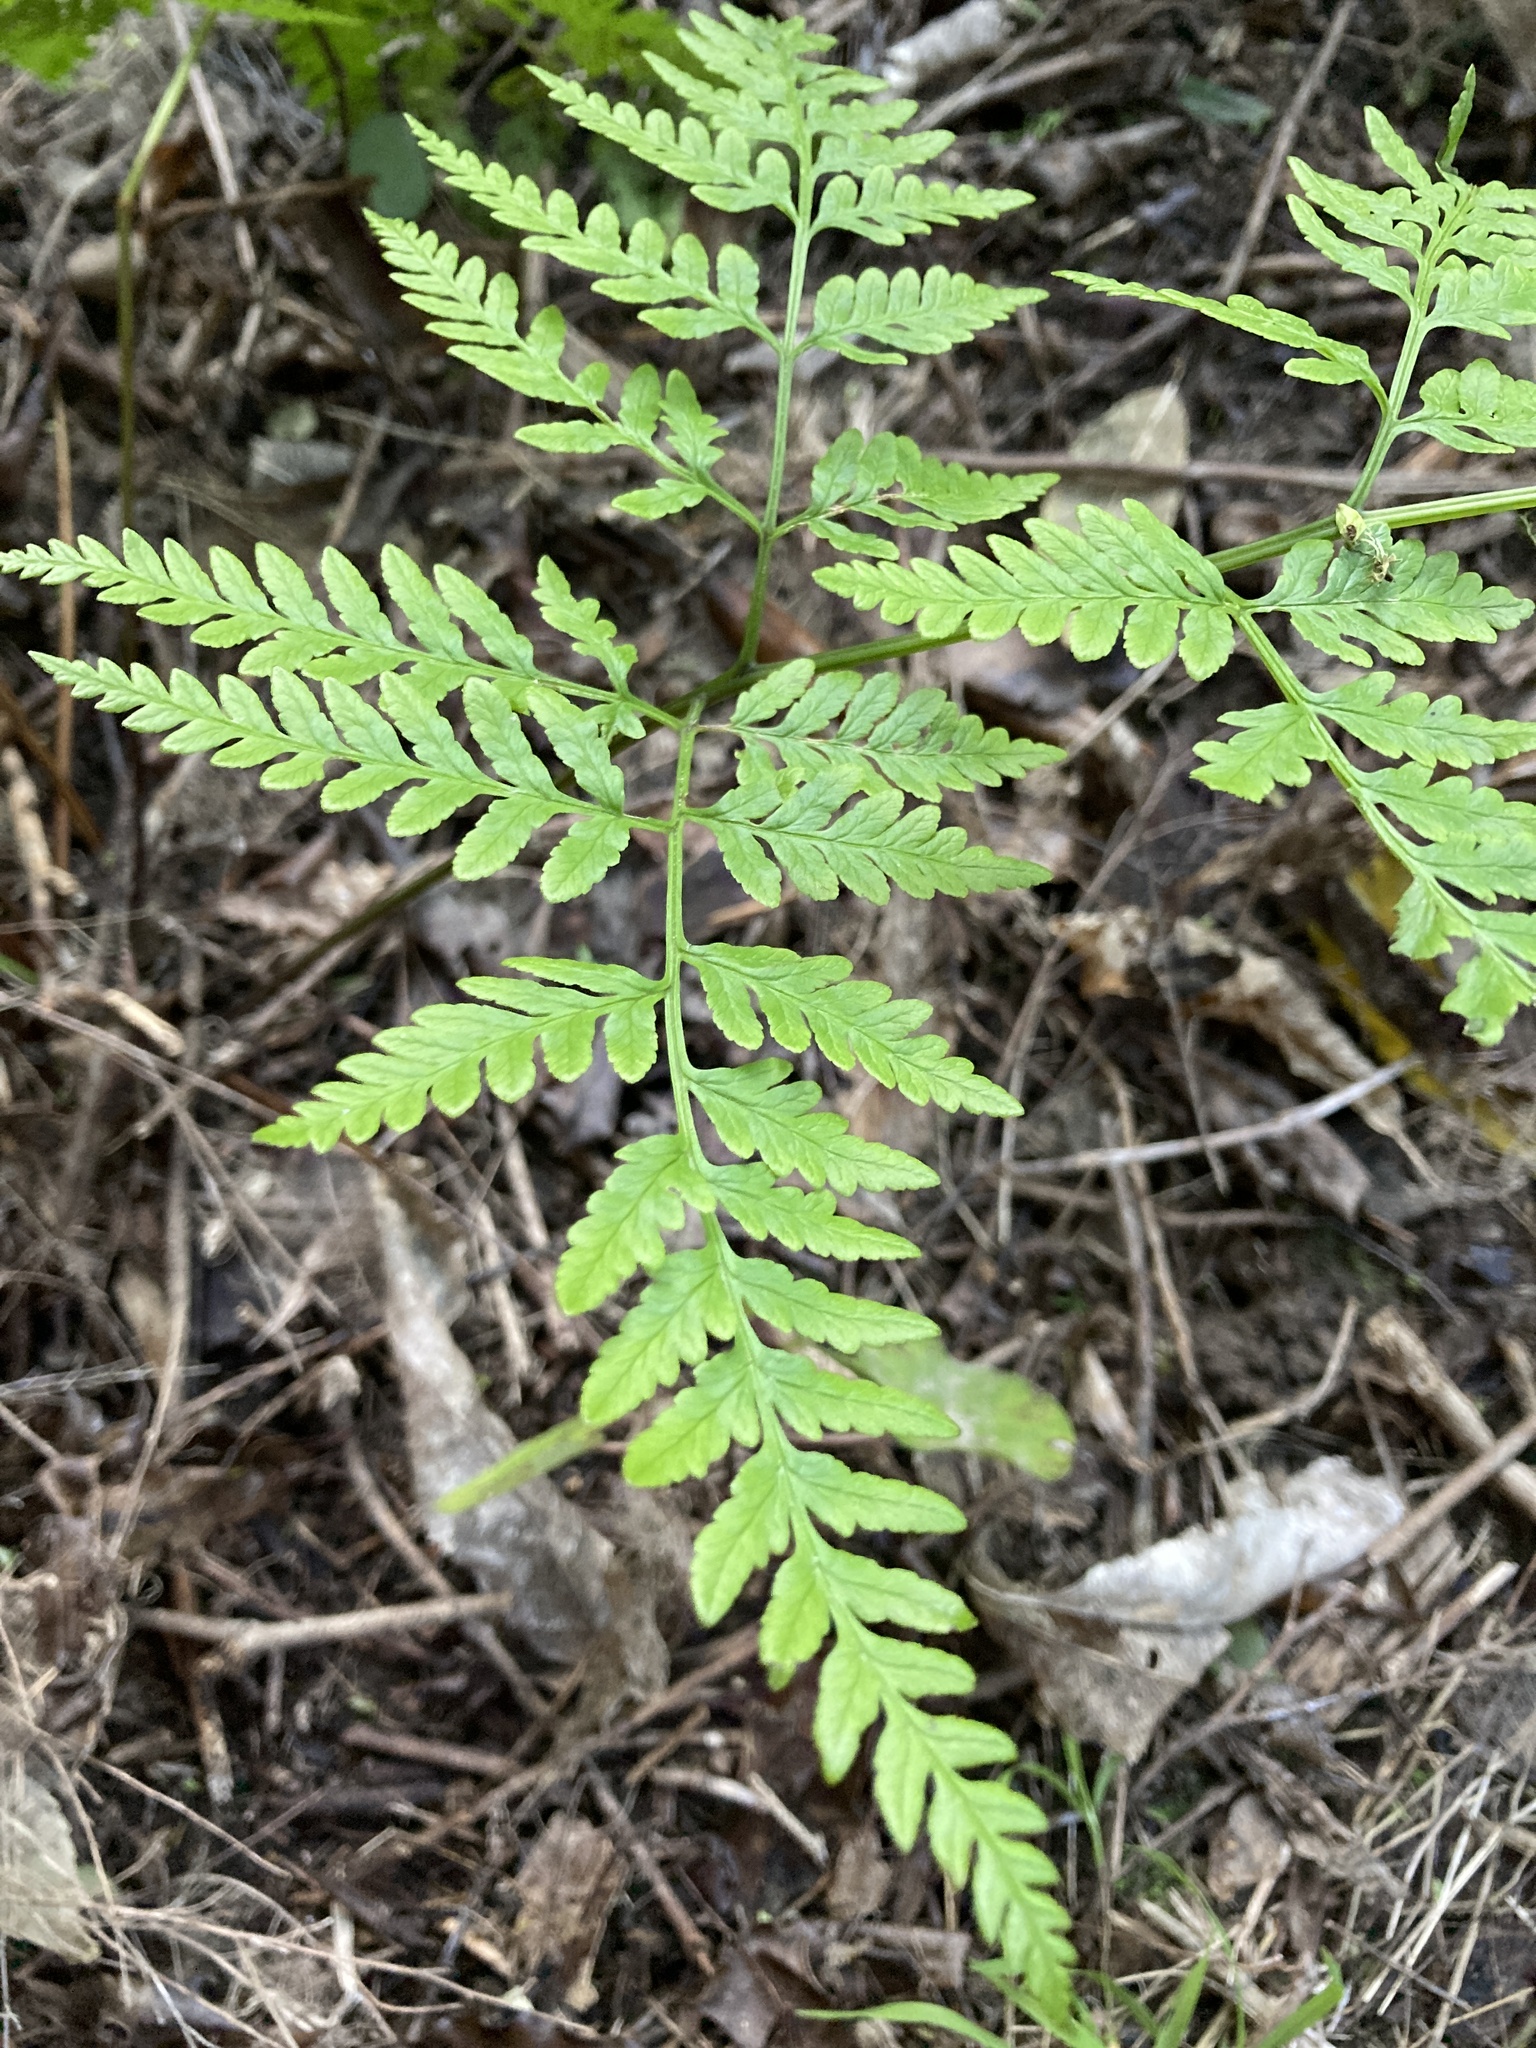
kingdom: Plantae
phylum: Tracheophyta
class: Polypodiopsida
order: Polypodiales
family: Pteridaceae
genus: Pteris
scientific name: Pteris tremula
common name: Australian brake
